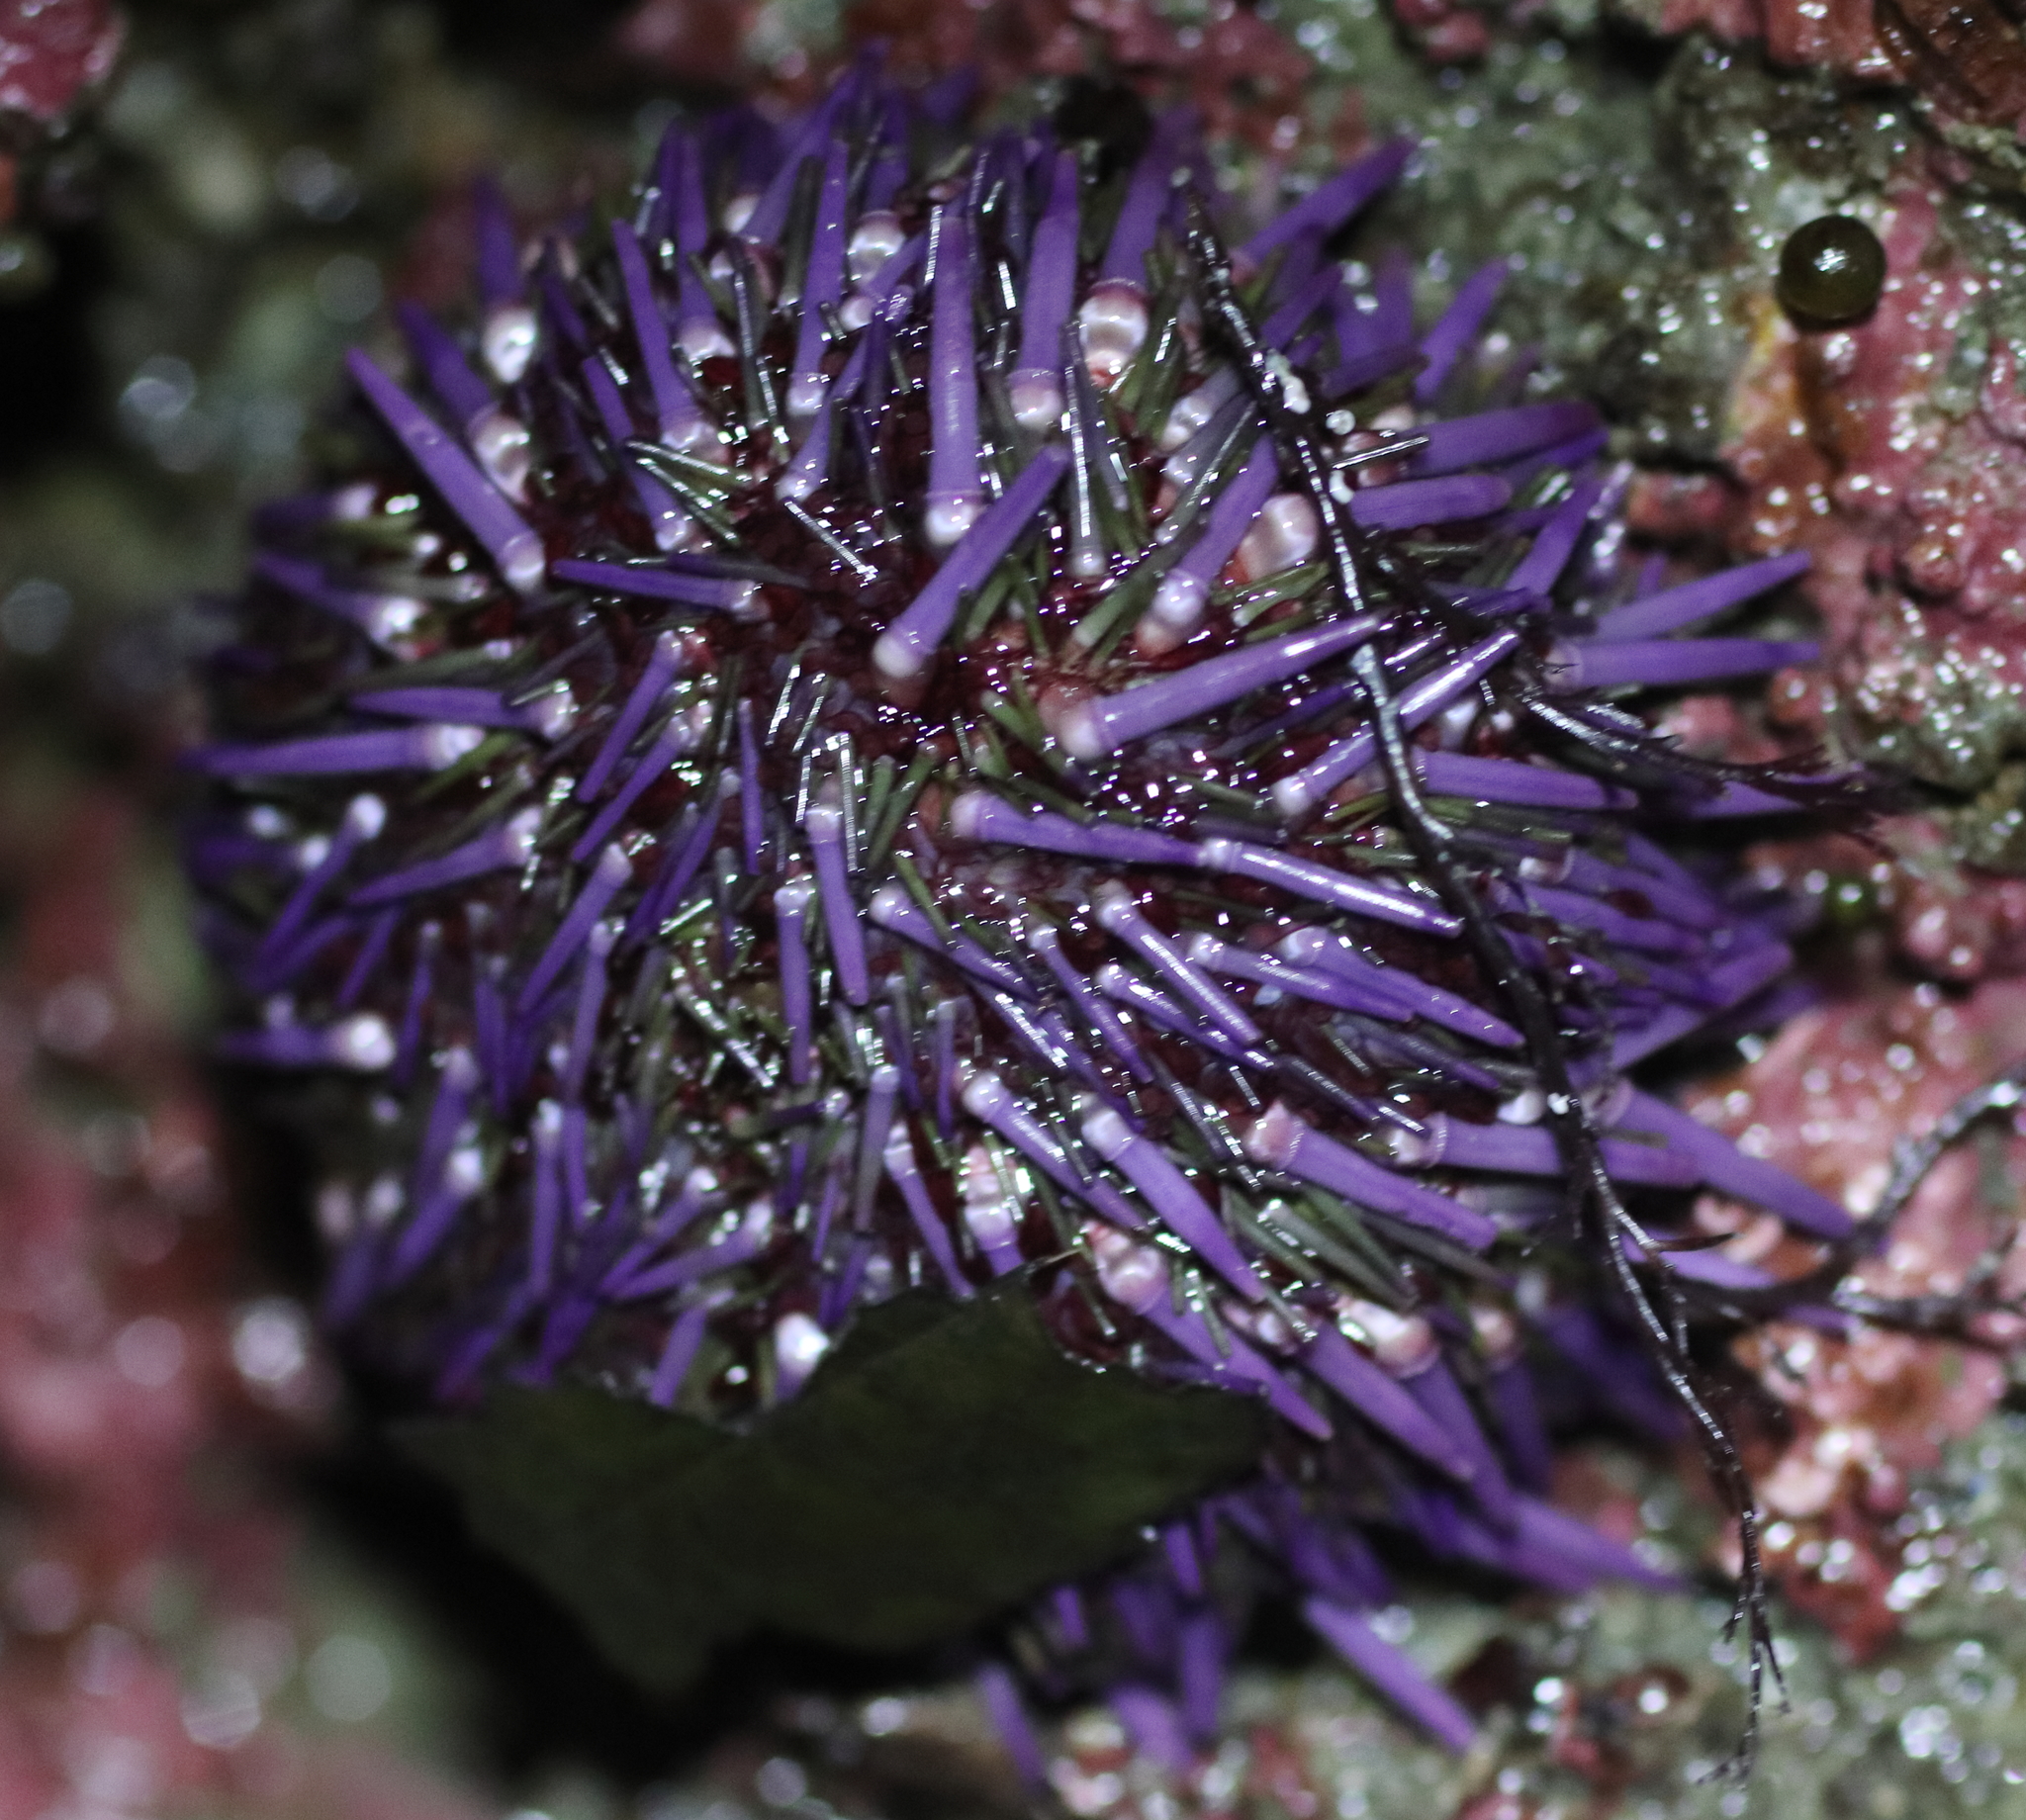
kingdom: Animalia
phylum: Echinodermata
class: Echinoidea
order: Camarodonta
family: Strongylocentrotidae
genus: Strongylocentrotus
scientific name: Strongylocentrotus purpuratus
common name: Purple sea urchin
